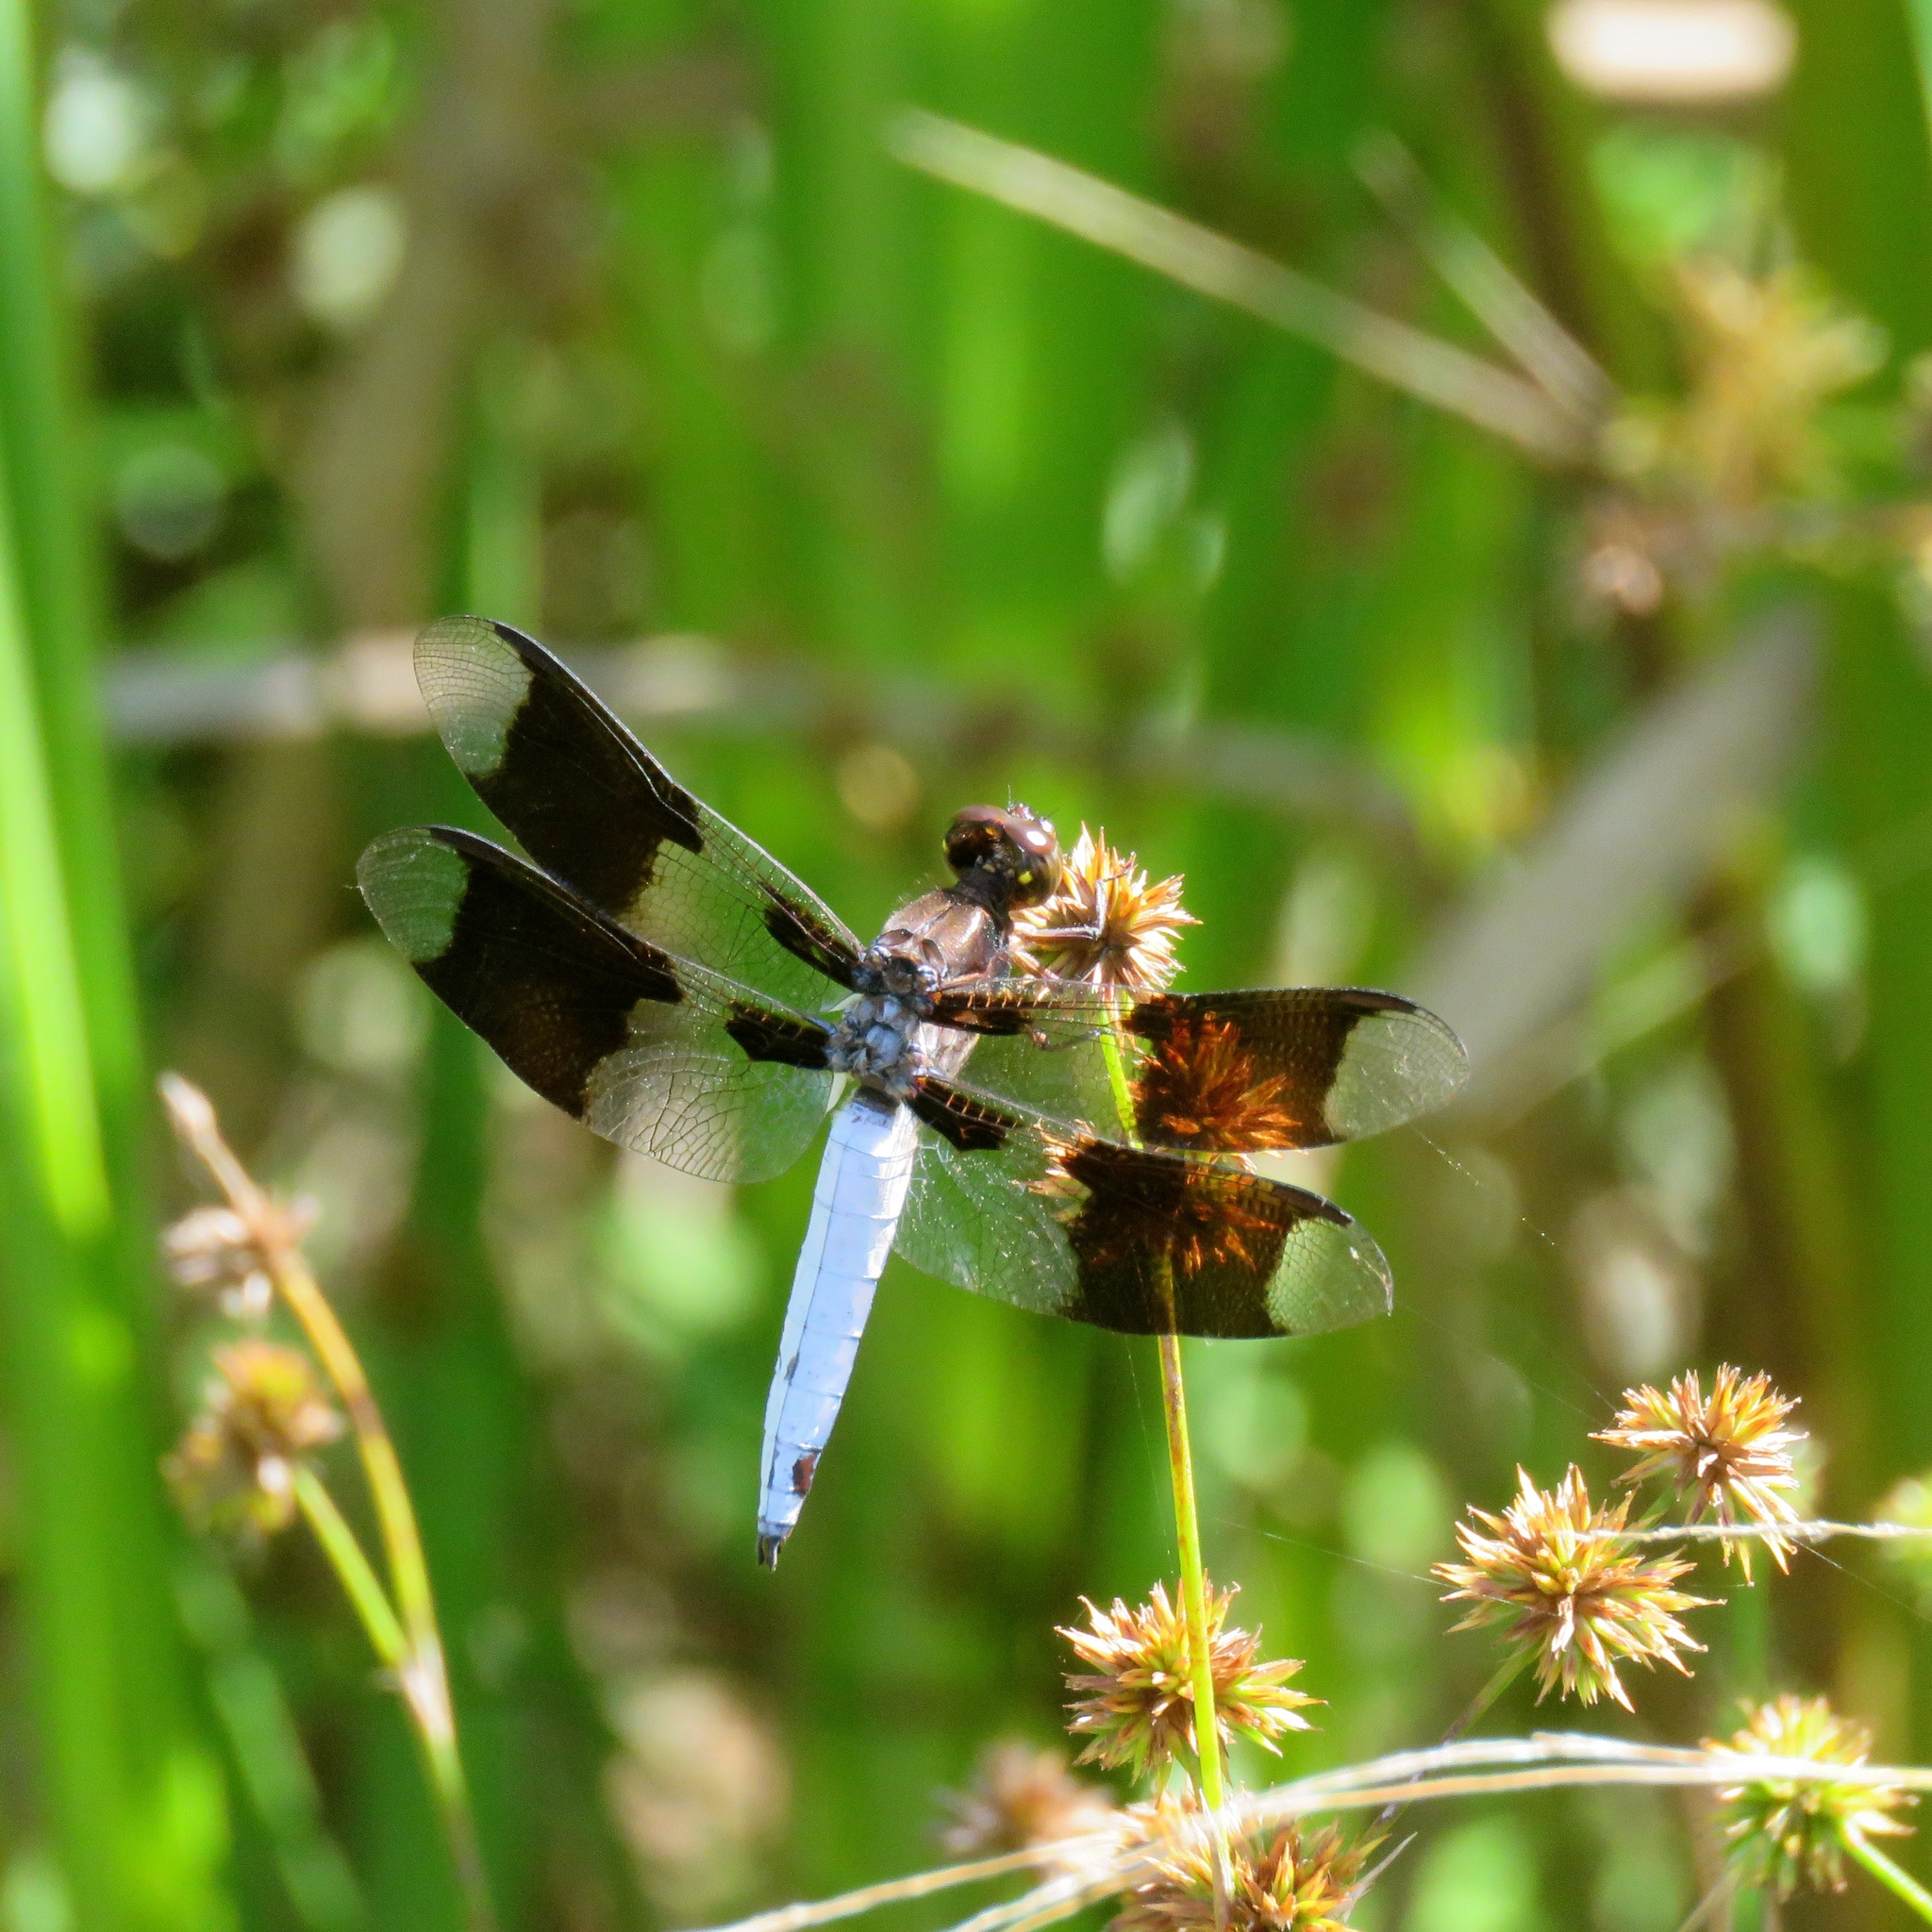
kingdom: Animalia
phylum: Arthropoda
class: Insecta
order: Odonata
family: Libellulidae
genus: Plathemis
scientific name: Plathemis lydia
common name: Common whitetail
